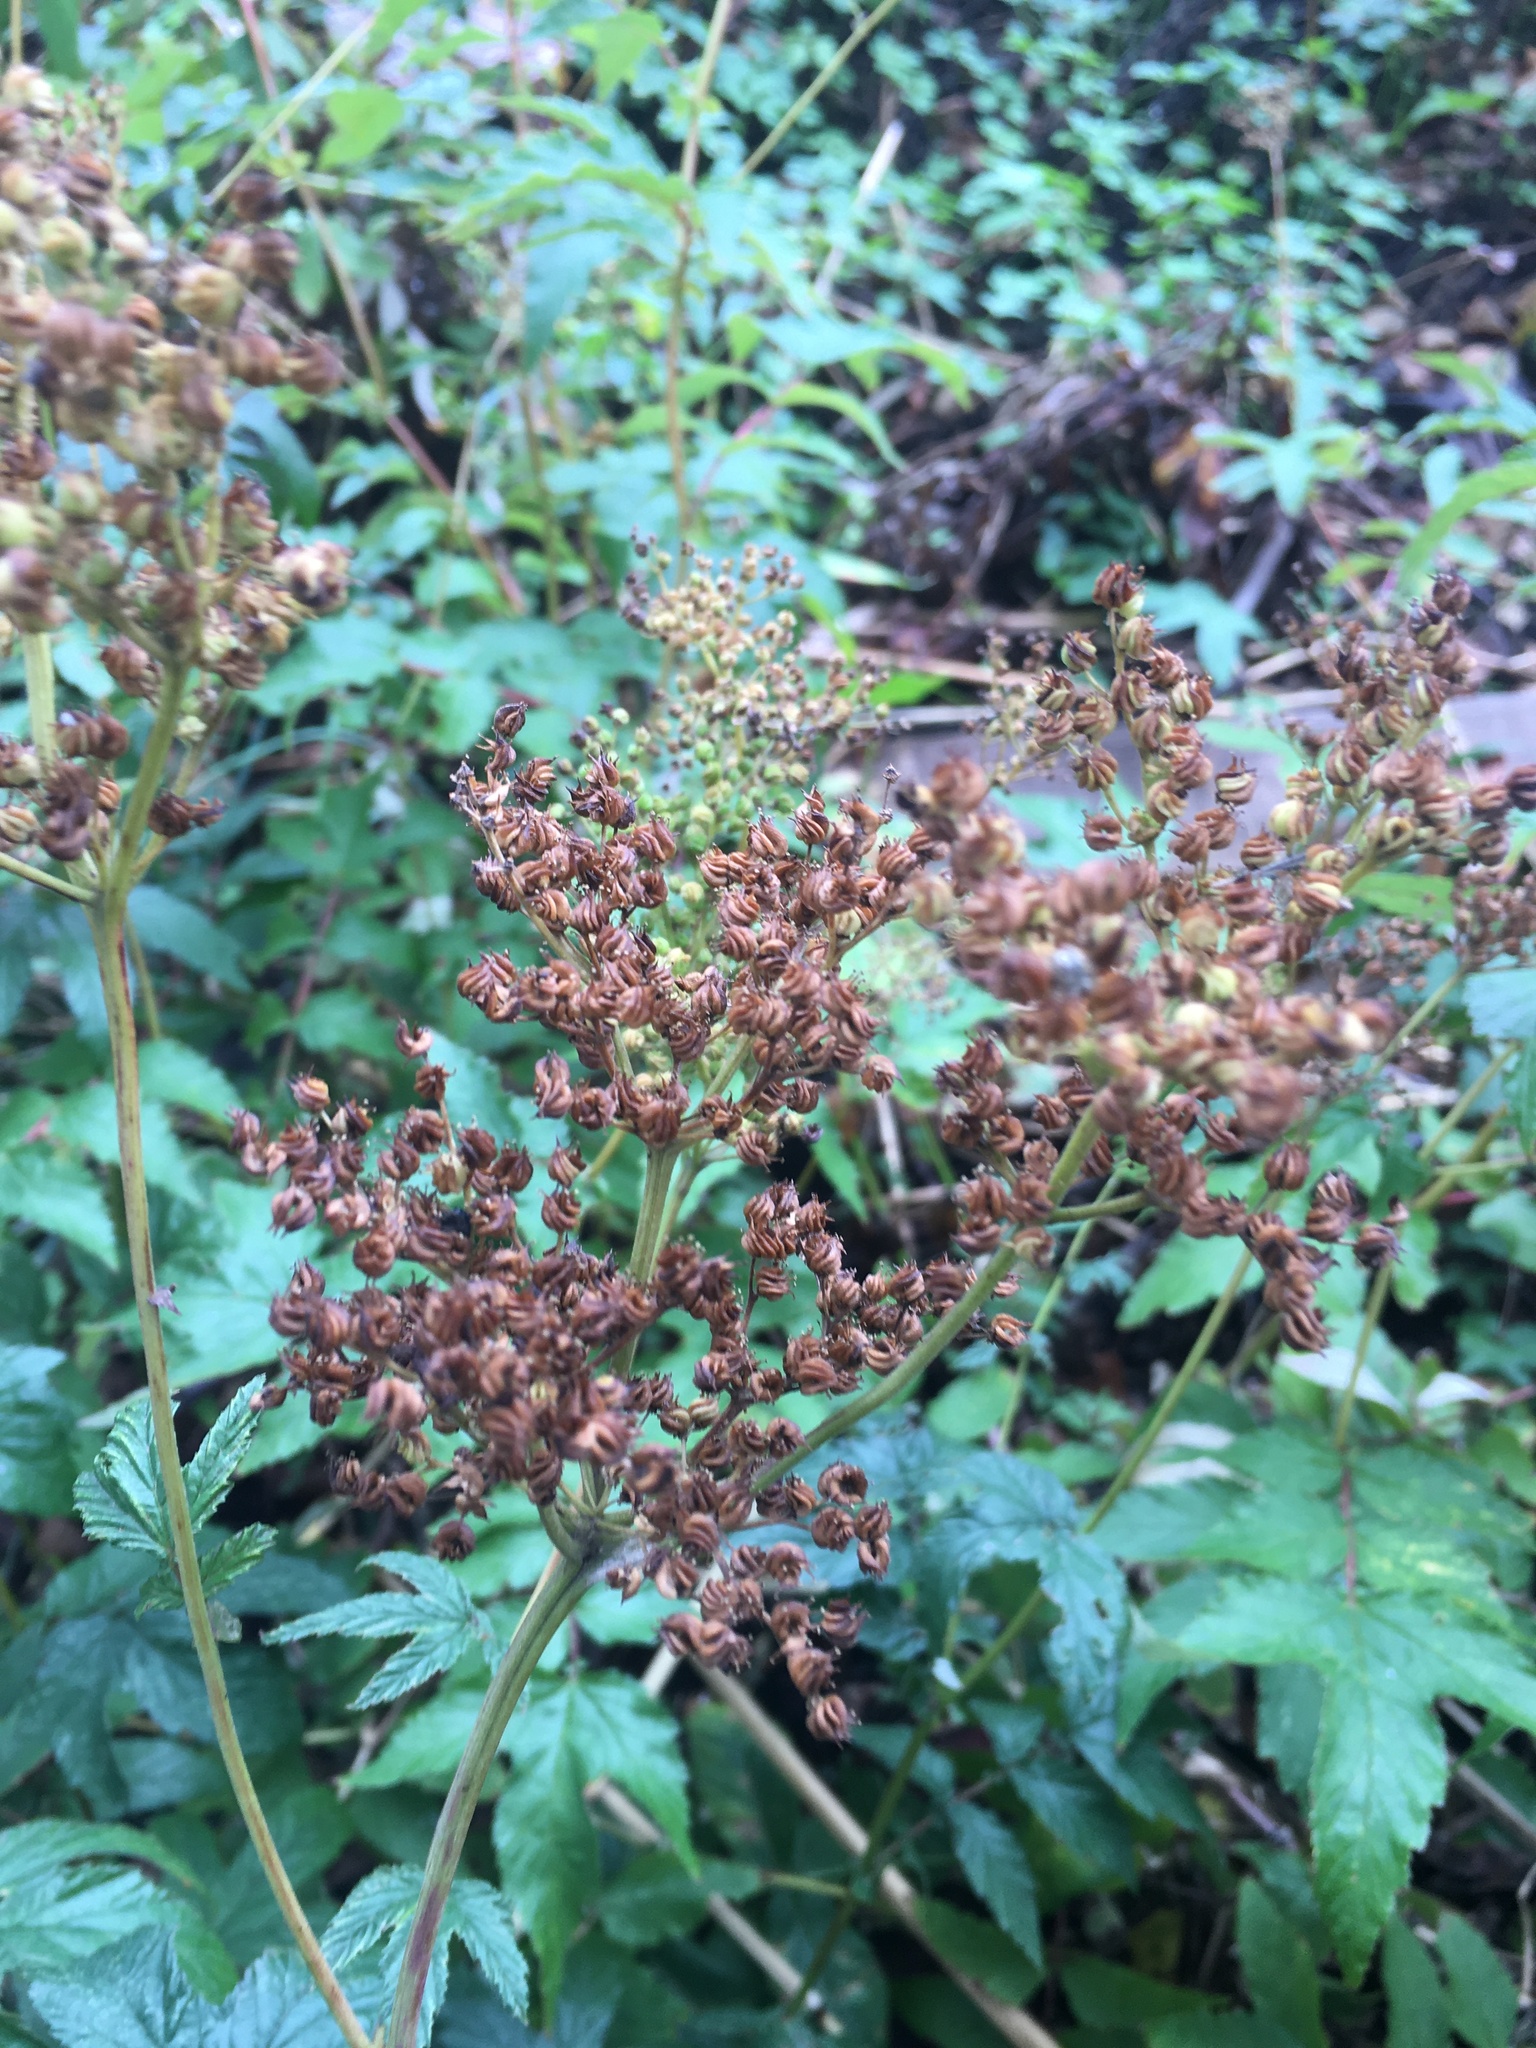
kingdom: Plantae
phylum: Tracheophyta
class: Magnoliopsida
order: Rosales
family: Rosaceae
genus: Filipendula
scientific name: Filipendula ulmaria
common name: Meadowsweet
